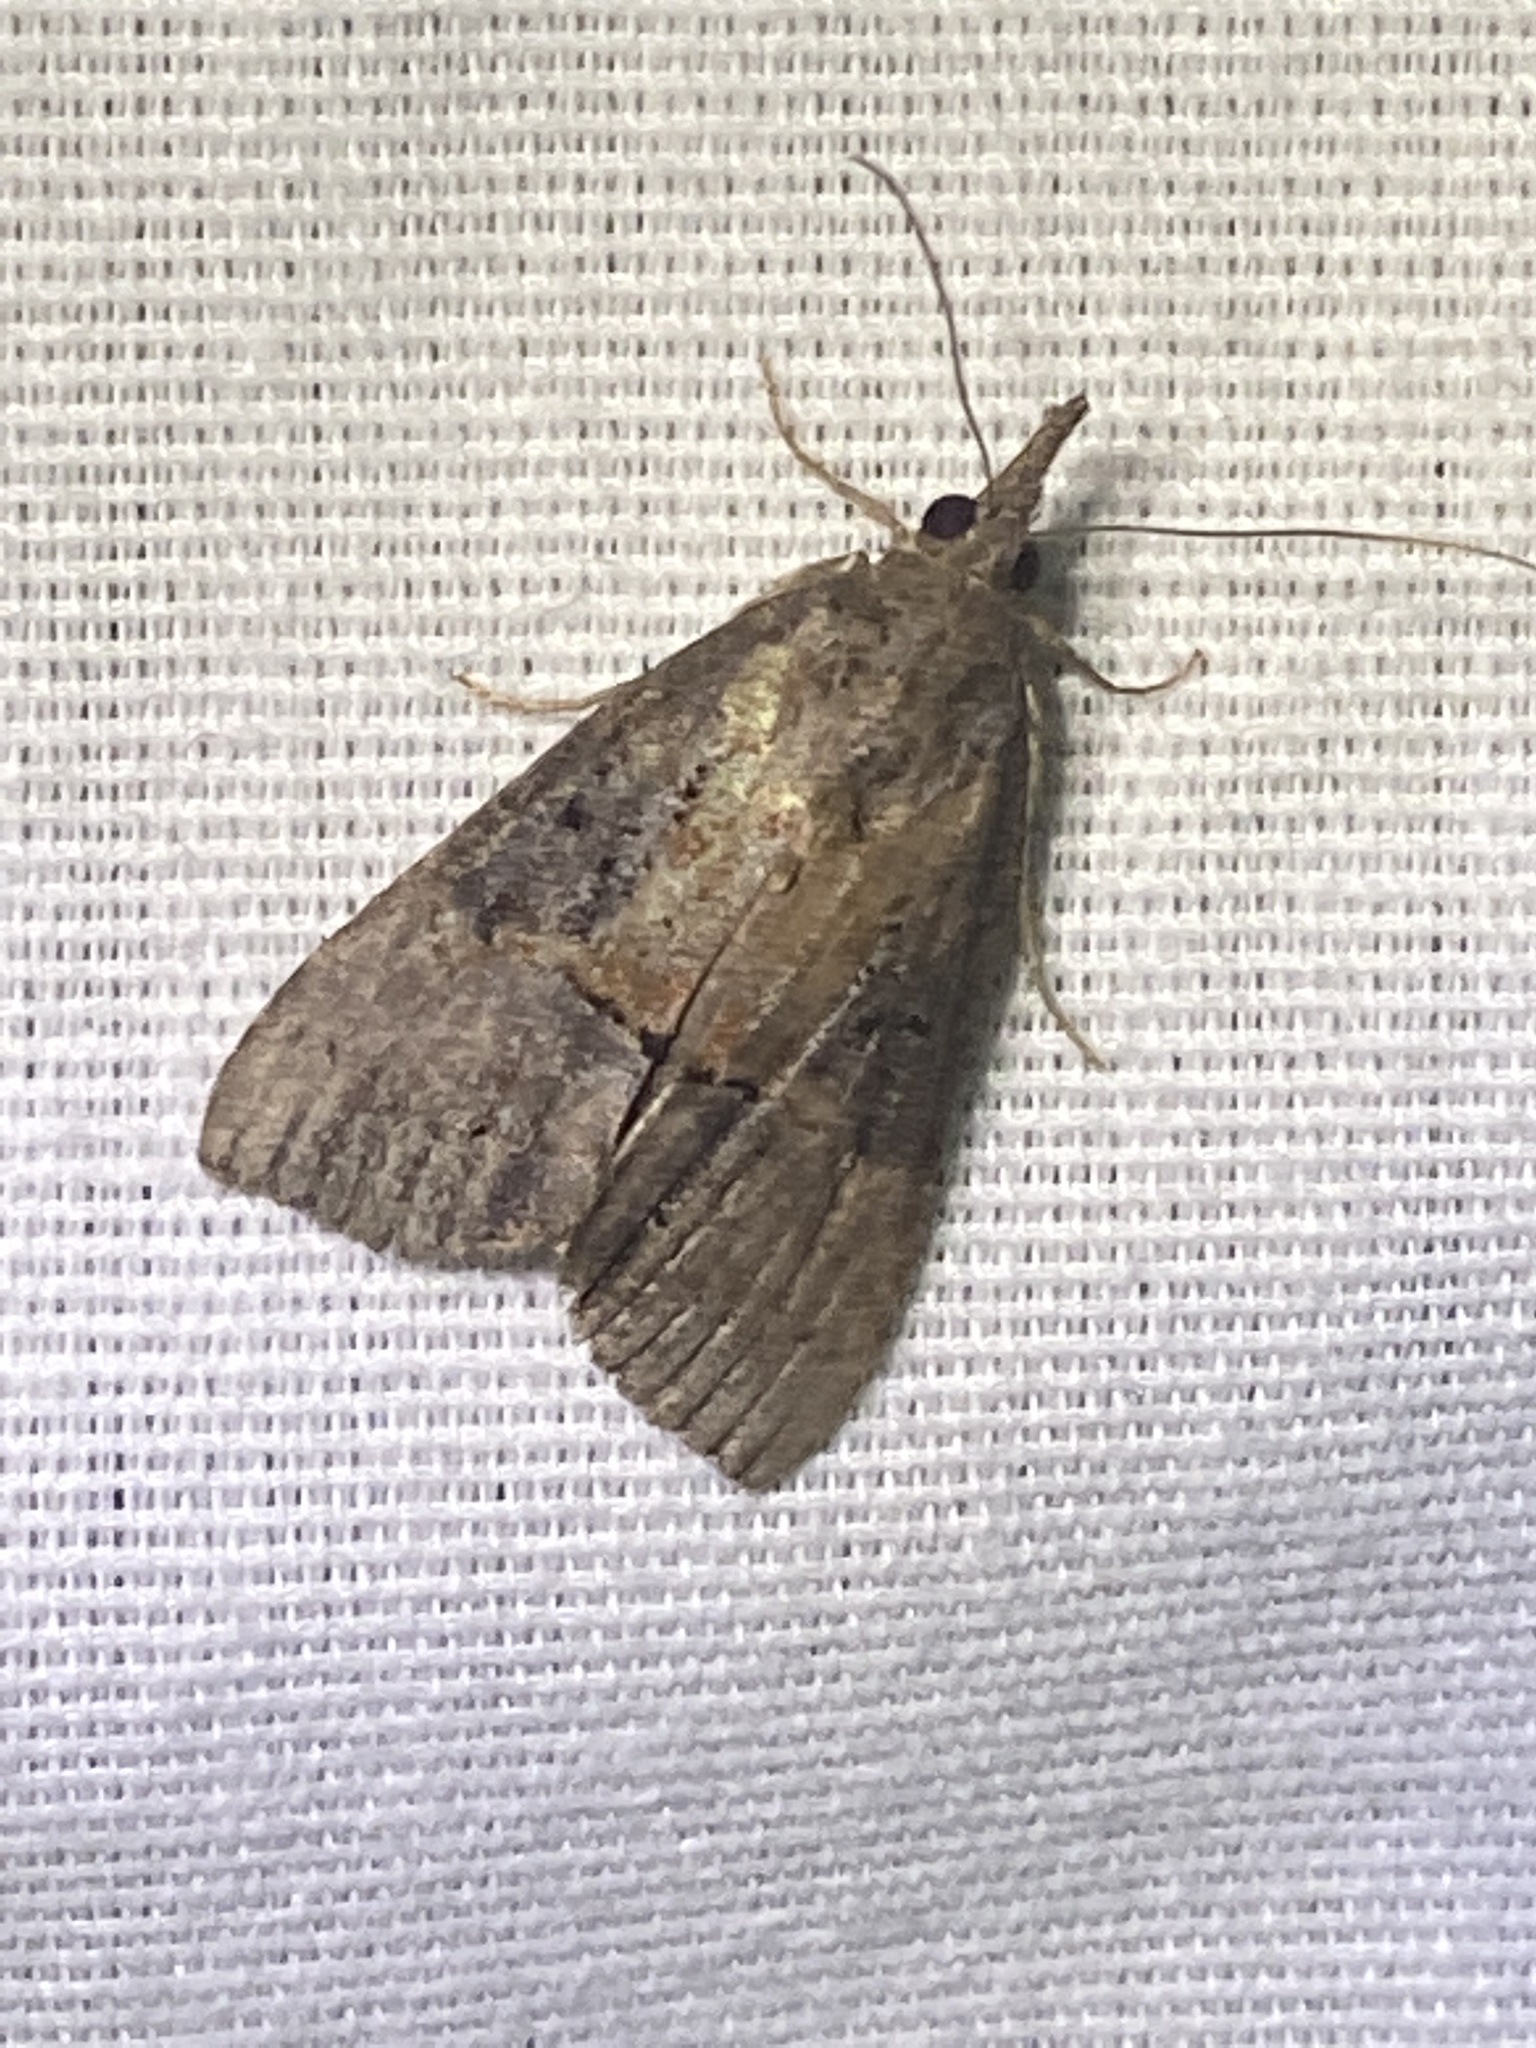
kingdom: Animalia
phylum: Arthropoda
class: Insecta
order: Lepidoptera
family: Erebidae
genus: Hypena
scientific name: Hypena scabra
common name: Green cloverworm
